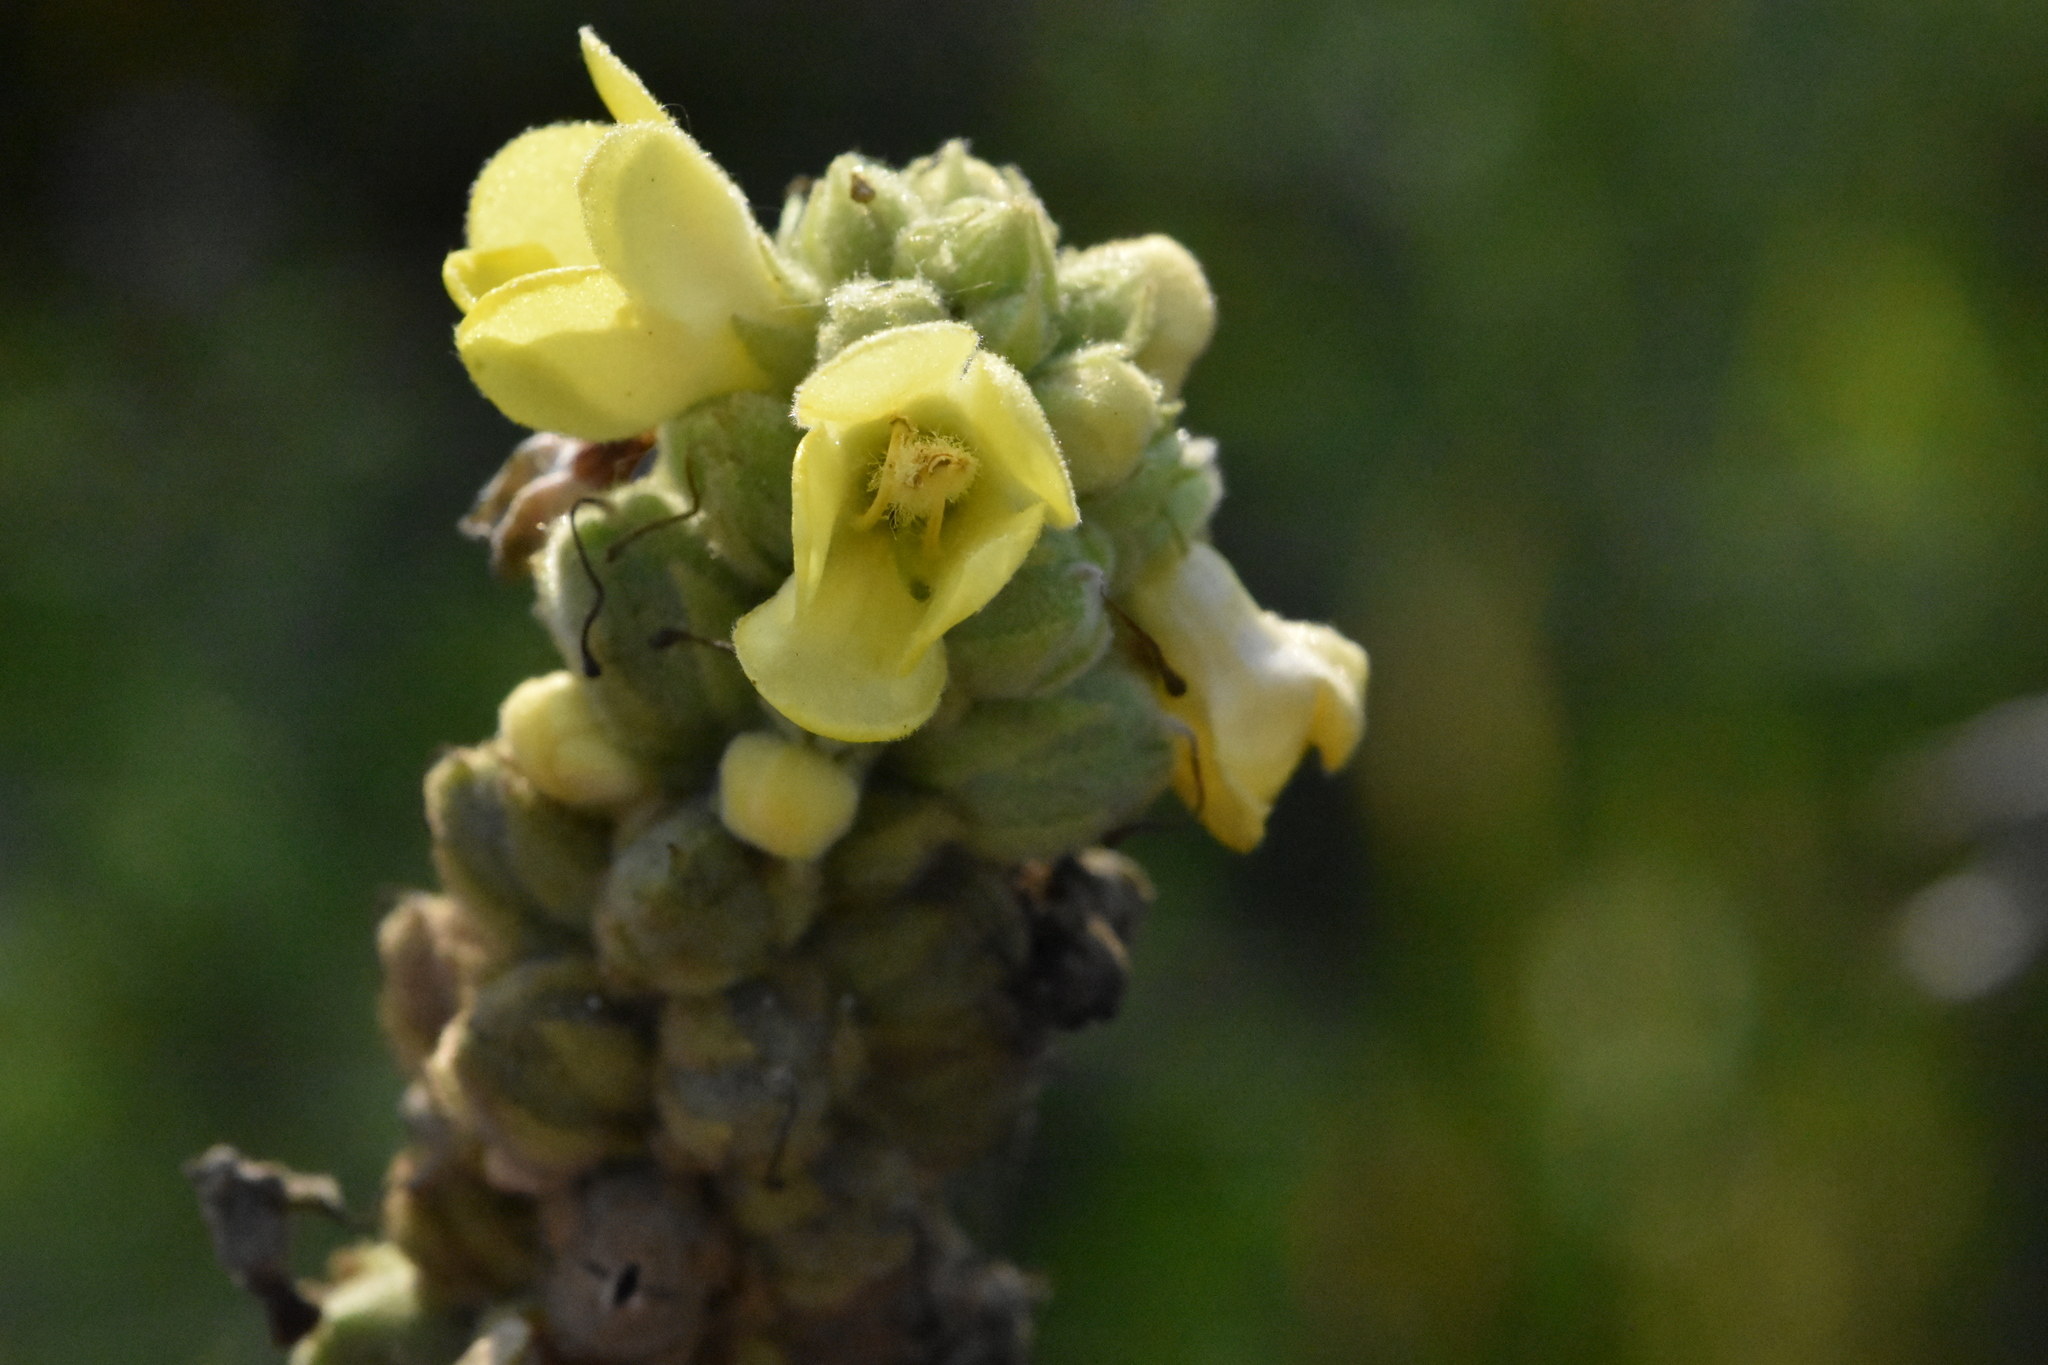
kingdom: Plantae
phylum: Tracheophyta
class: Magnoliopsida
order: Lamiales
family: Scrophulariaceae
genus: Verbascum
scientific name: Verbascum thapsus
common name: Common mullein
